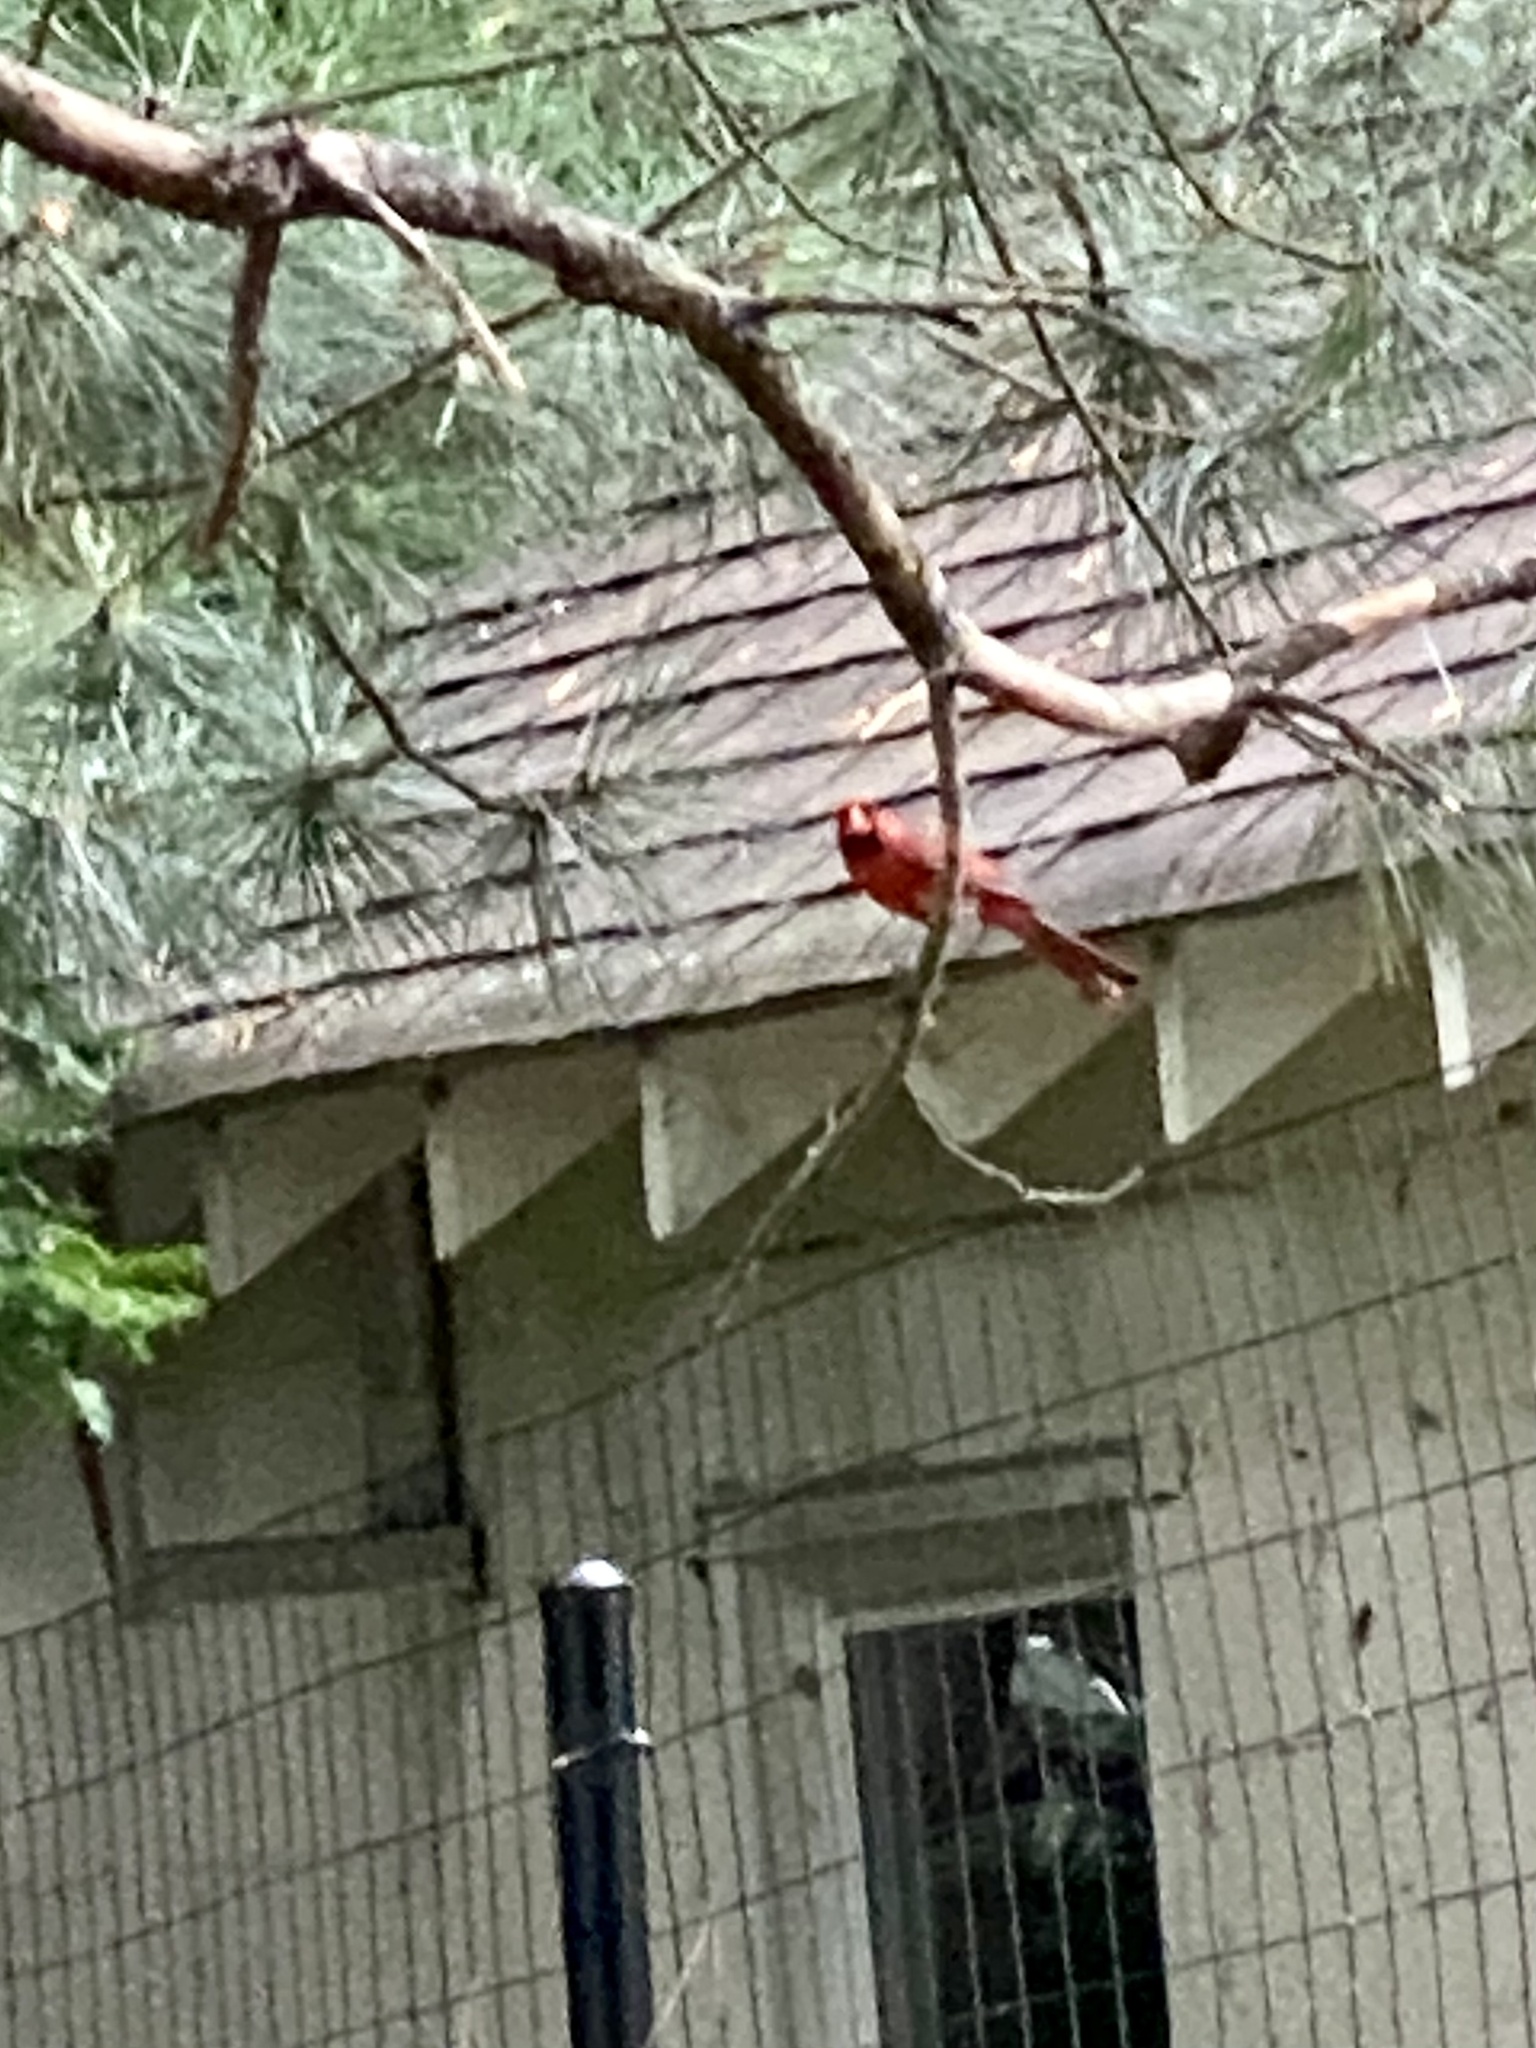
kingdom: Animalia
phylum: Chordata
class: Aves
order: Passeriformes
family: Cardinalidae
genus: Cardinalis
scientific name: Cardinalis cardinalis
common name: Northern cardinal
